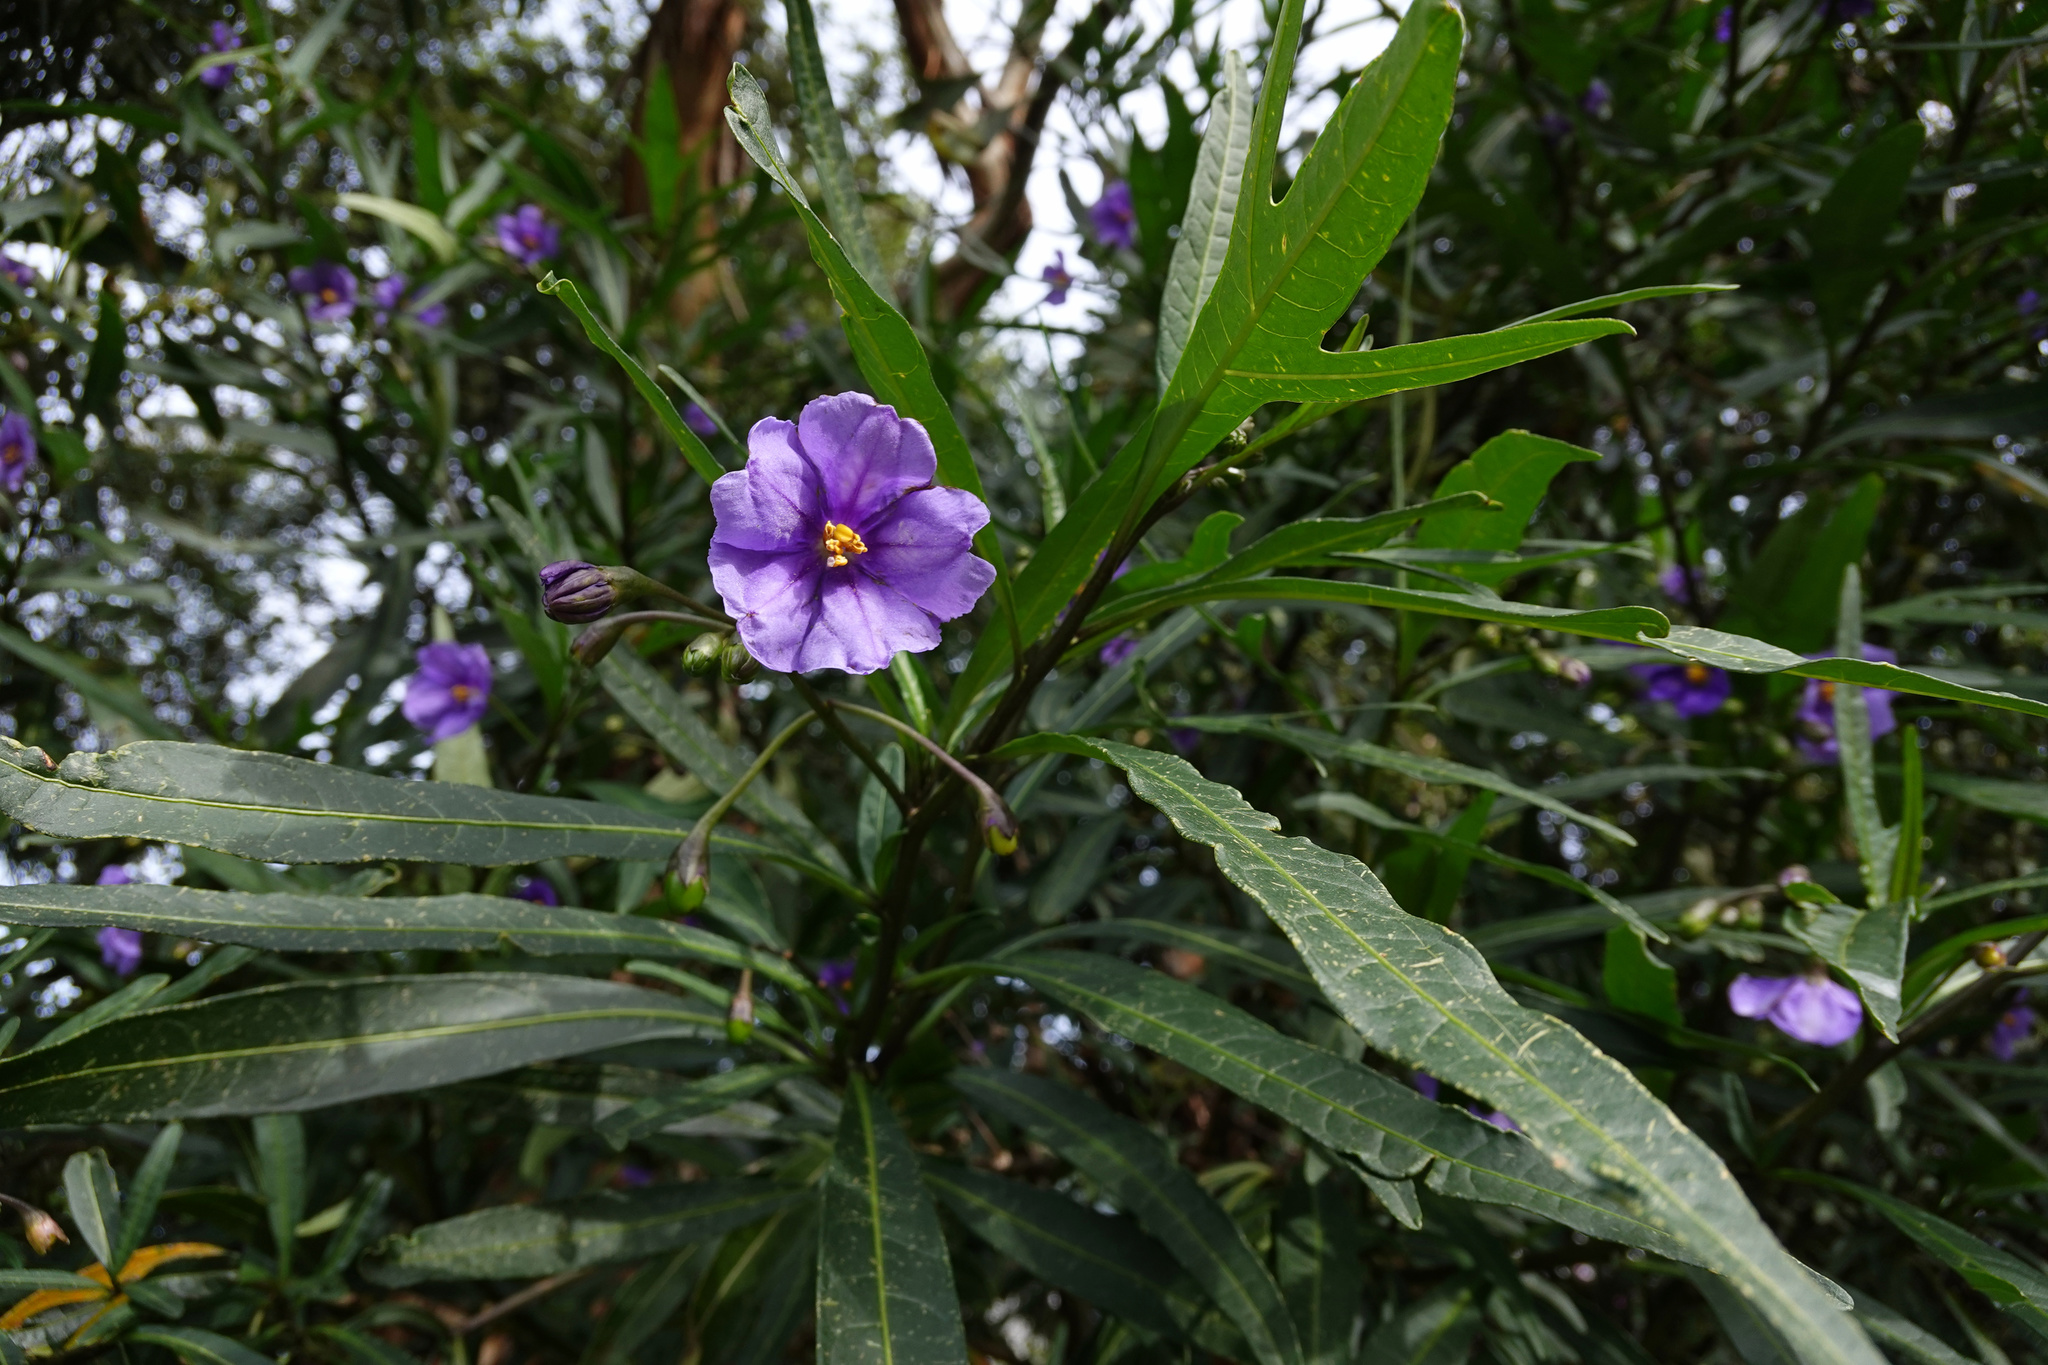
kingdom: Plantae
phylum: Tracheophyta
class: Magnoliopsida
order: Solanales
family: Solanaceae
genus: Solanum
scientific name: Solanum laciniatum
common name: Kangaroo-apple
